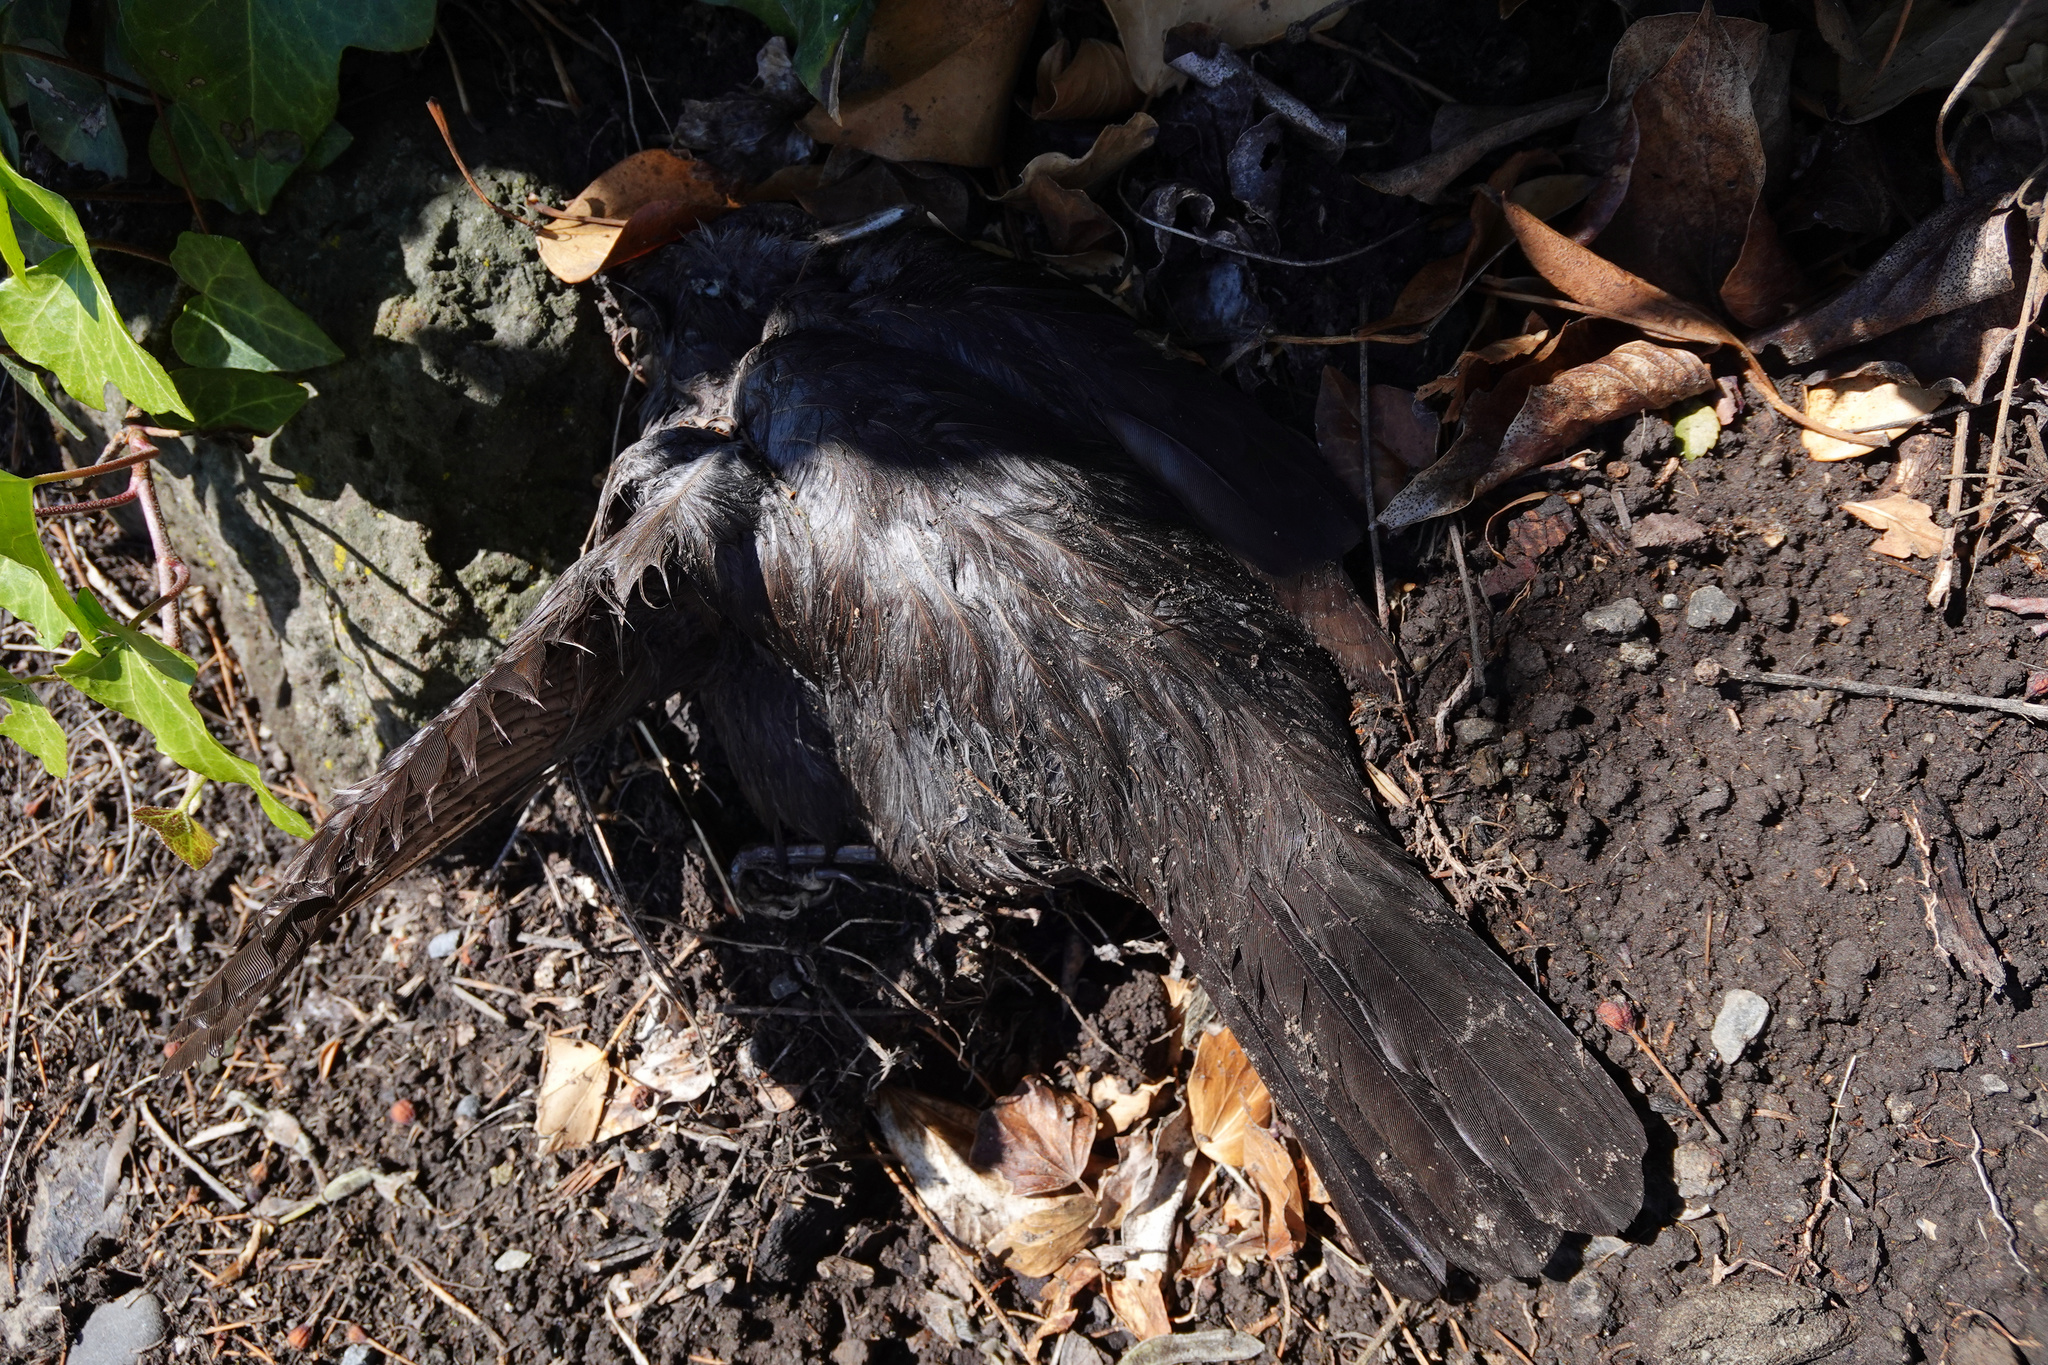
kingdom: Animalia
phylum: Chordata
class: Aves
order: Passeriformes
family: Turdidae
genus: Turdus
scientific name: Turdus merula
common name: Common blackbird
